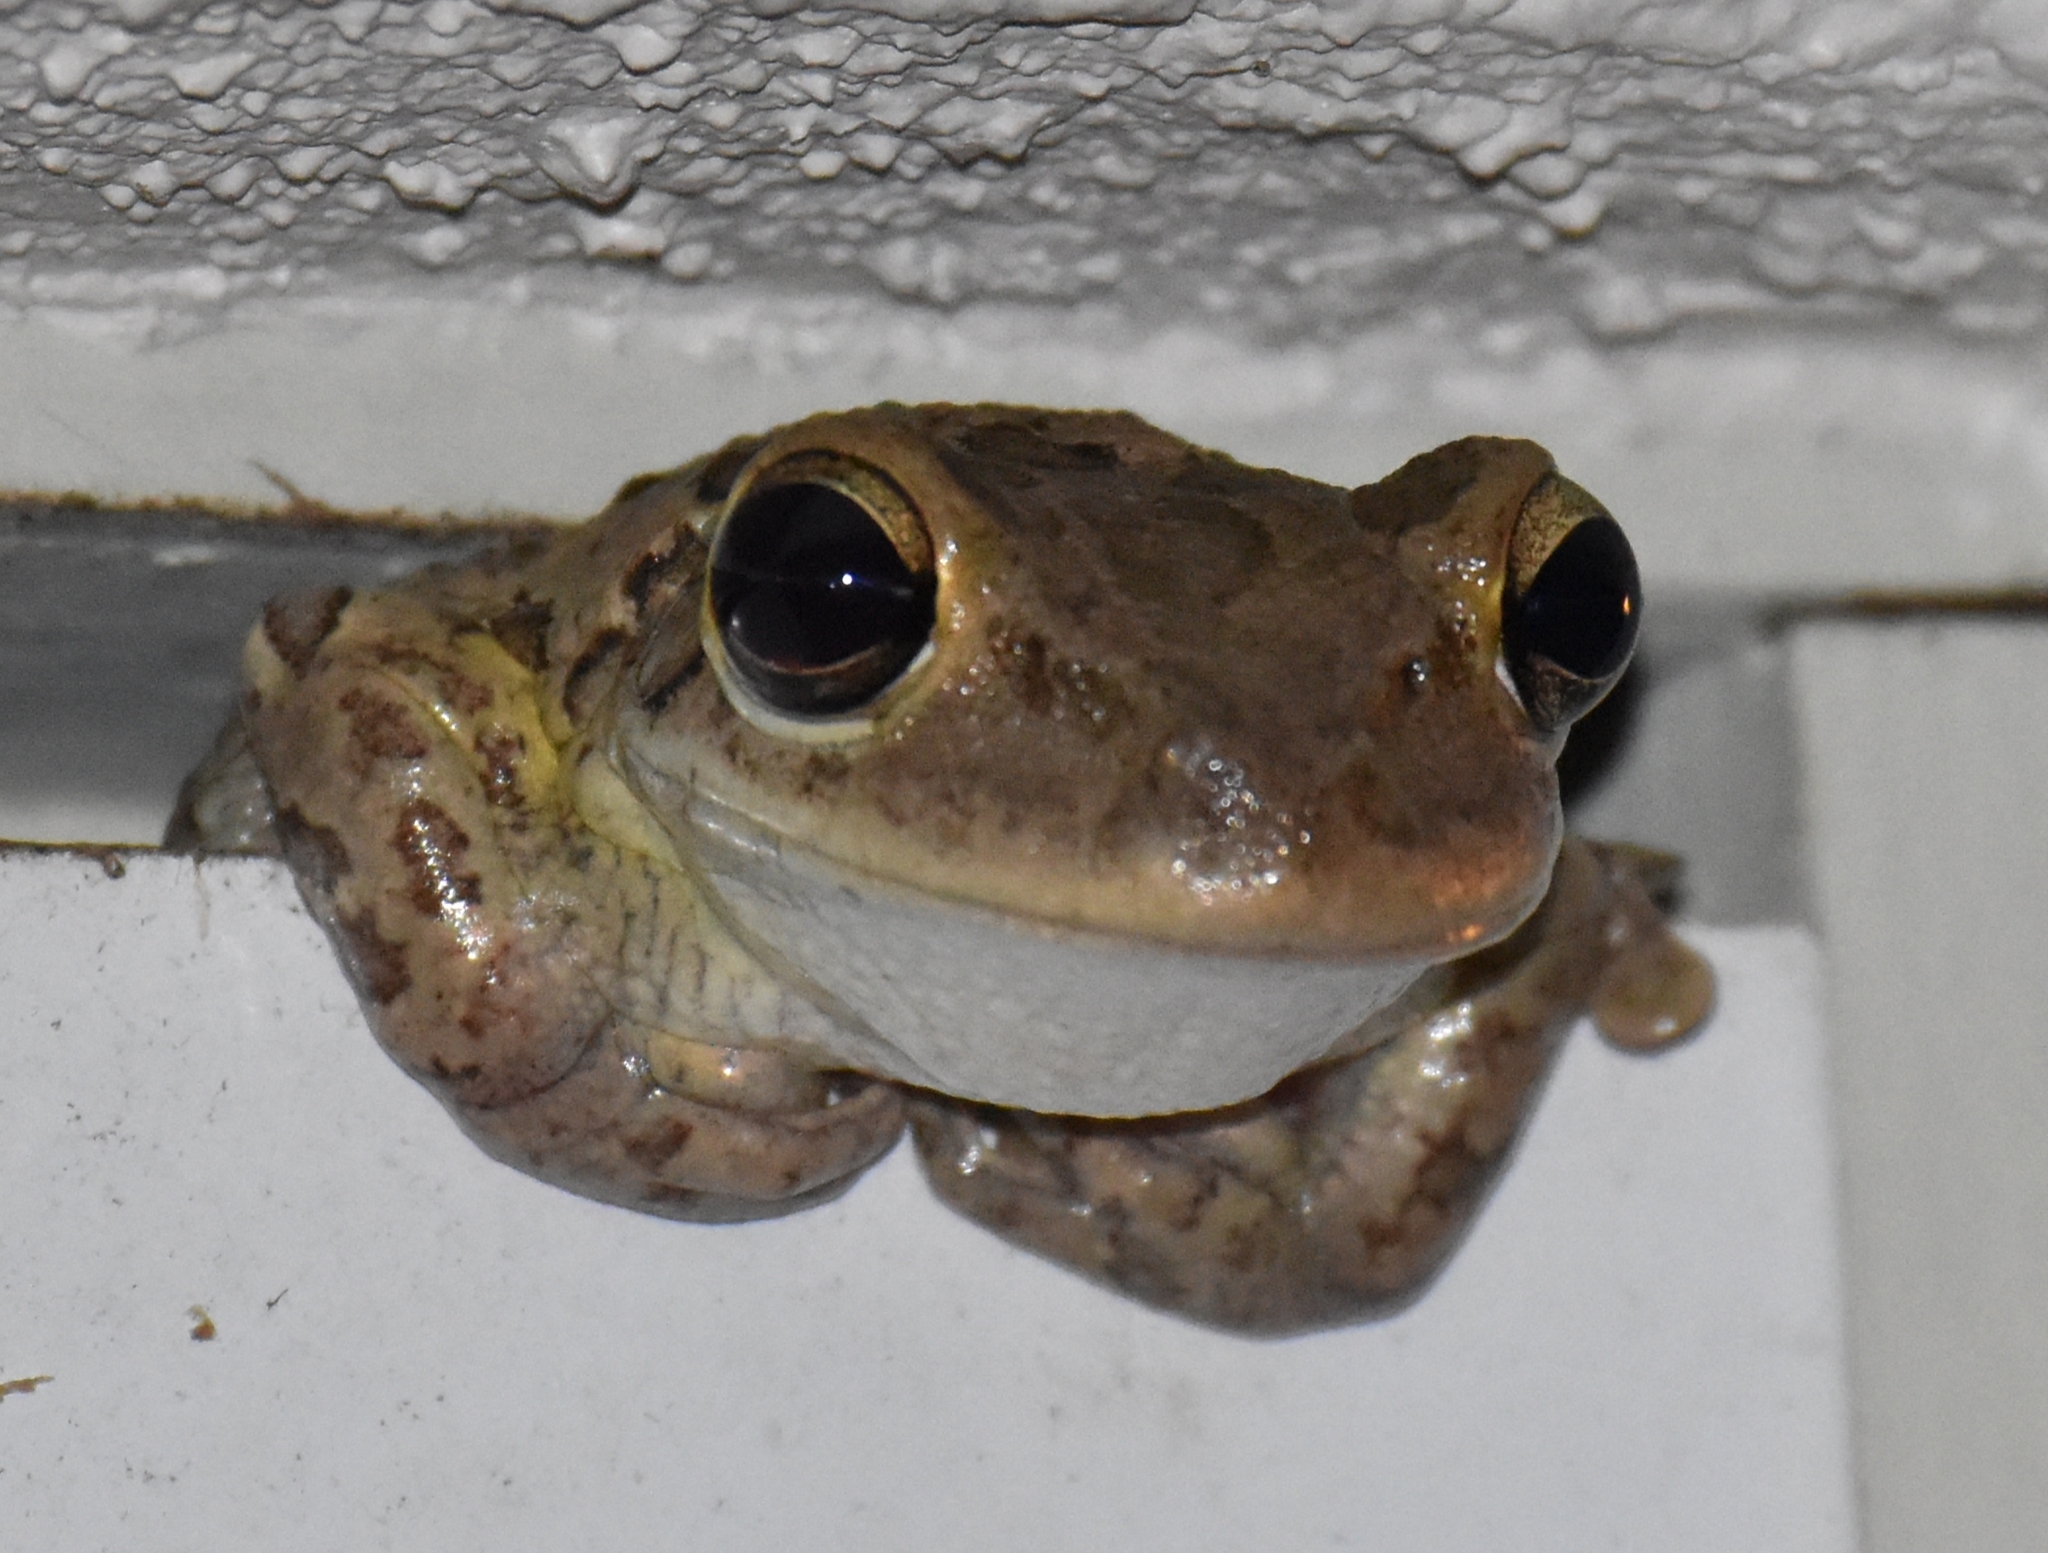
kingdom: Animalia
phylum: Chordata
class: Amphibia
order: Anura
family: Hylidae
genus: Osteopilus
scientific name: Osteopilus septentrionalis
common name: Cuban treefrog
